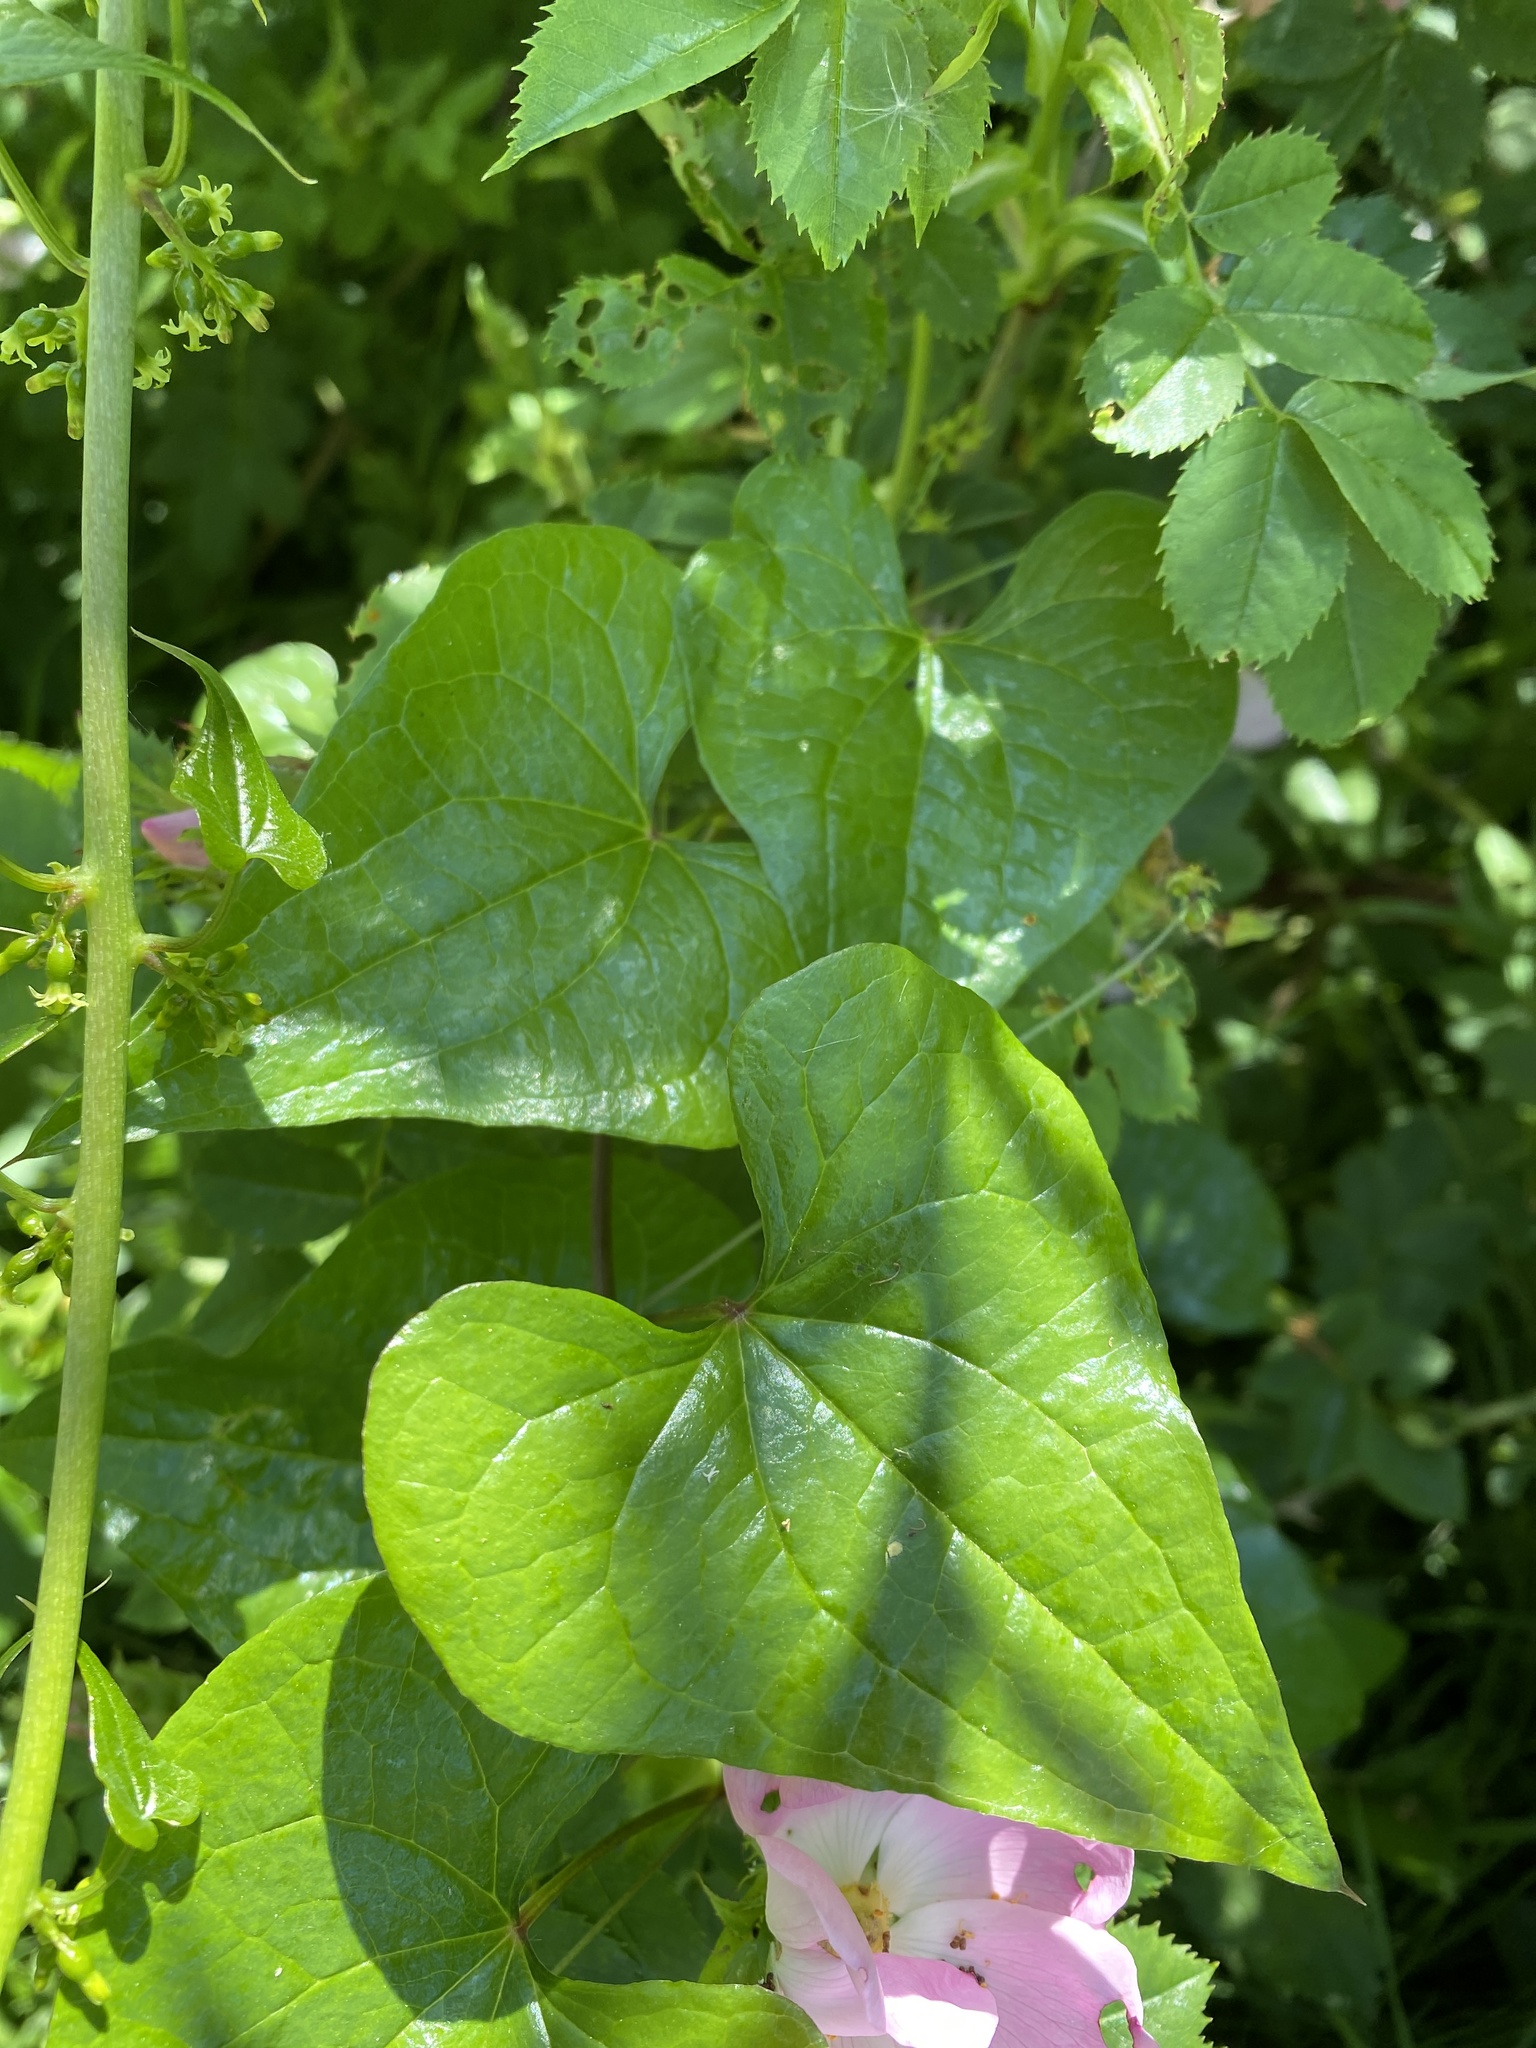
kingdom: Plantae
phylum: Tracheophyta
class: Liliopsida
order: Dioscoreales
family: Dioscoreaceae
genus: Dioscorea
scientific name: Dioscorea communis
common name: Black-bindweed
